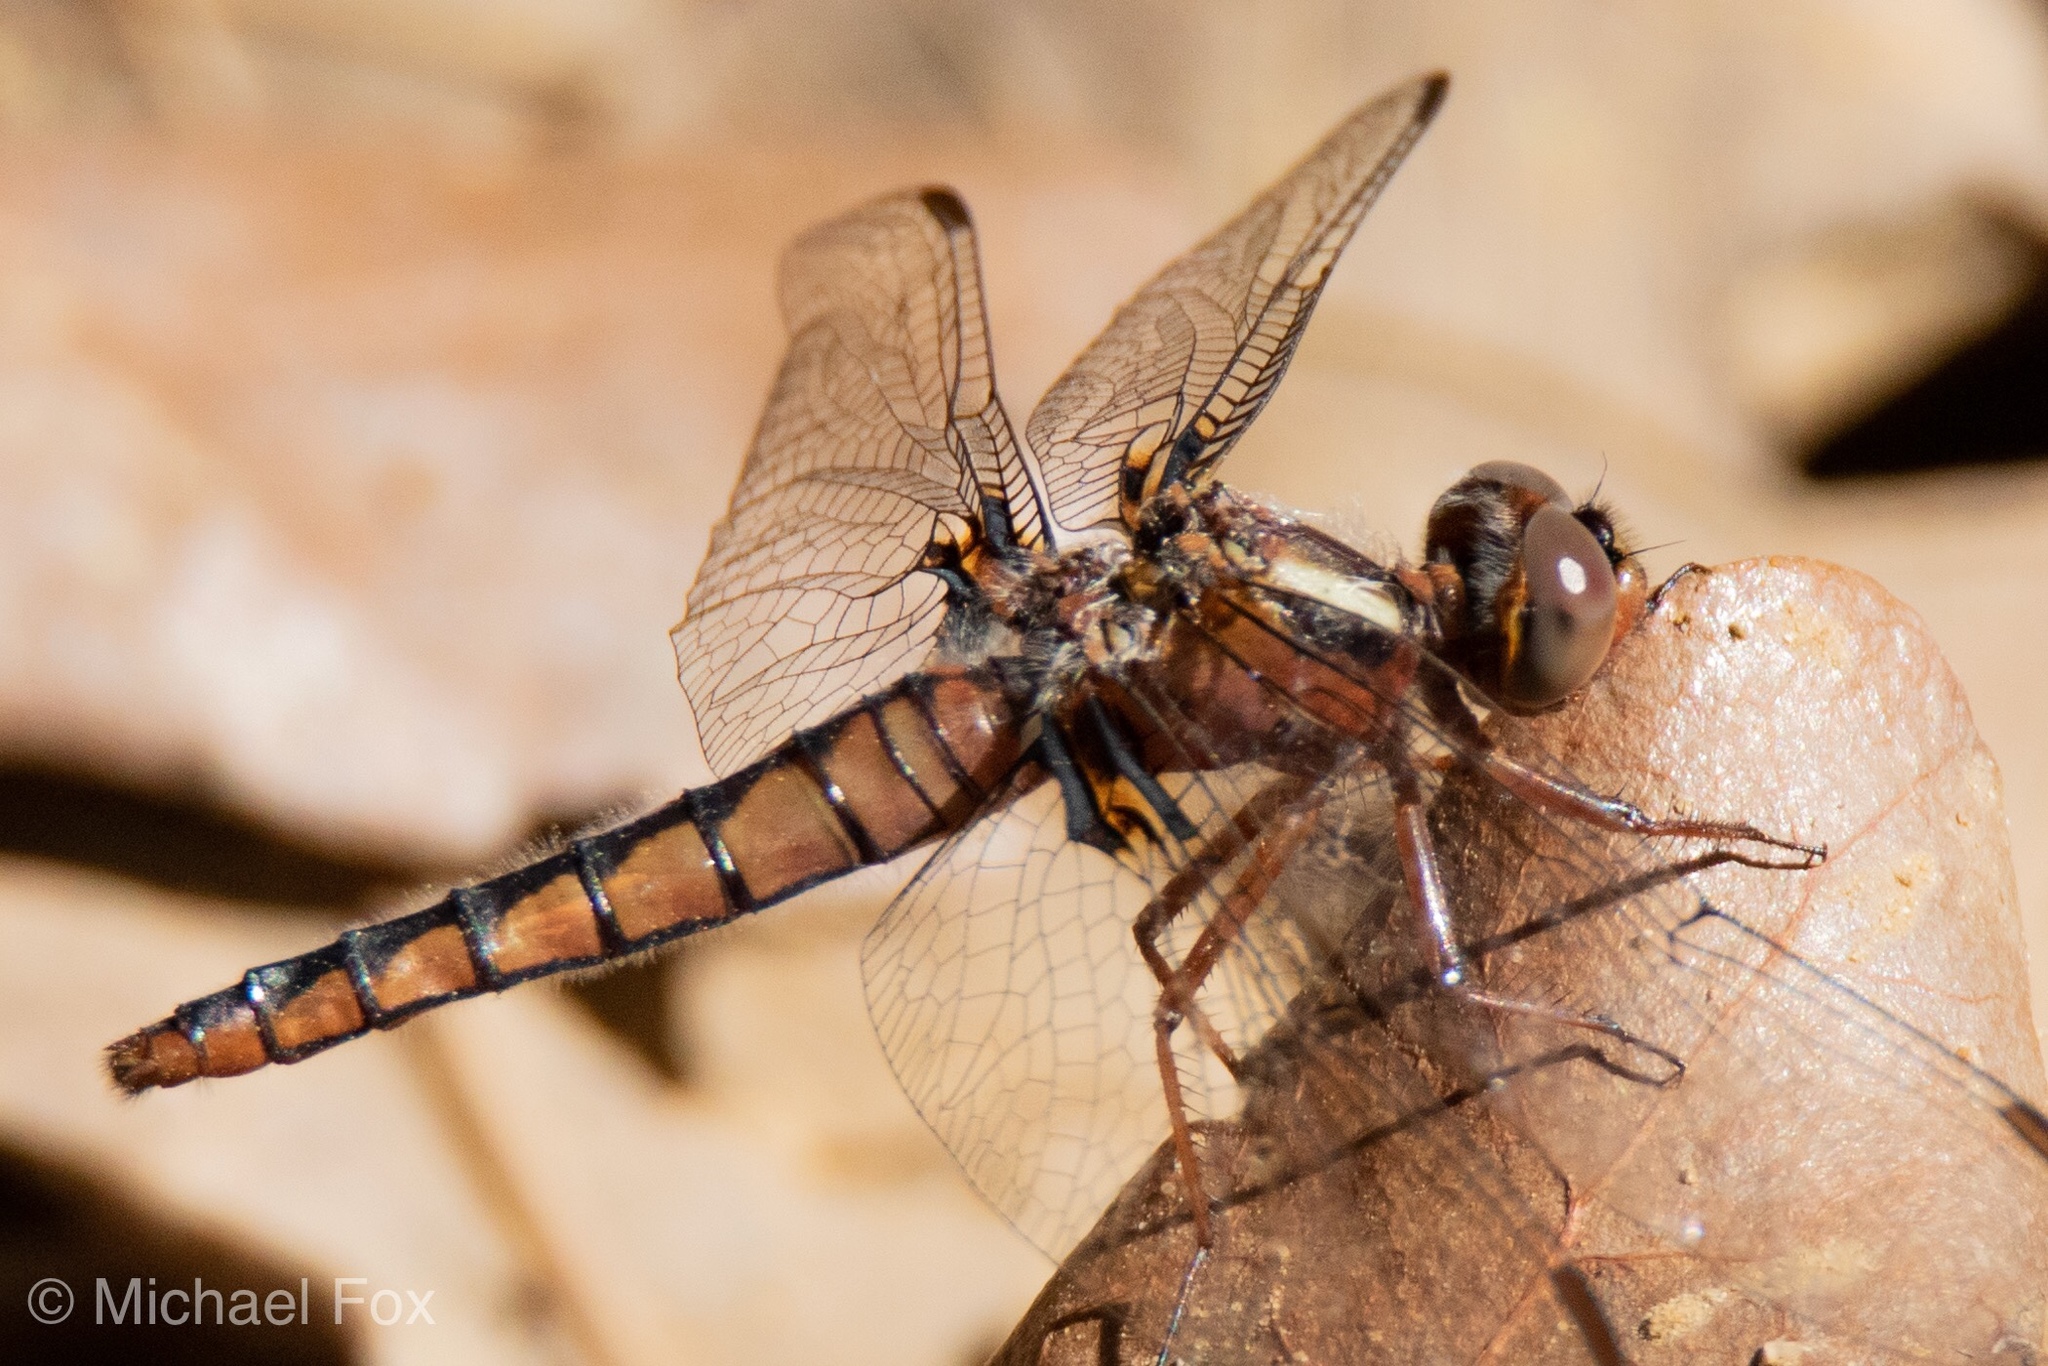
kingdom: Animalia
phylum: Arthropoda
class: Insecta
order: Odonata
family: Libellulidae
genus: Ladona
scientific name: Ladona deplanata
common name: Blue corporal
